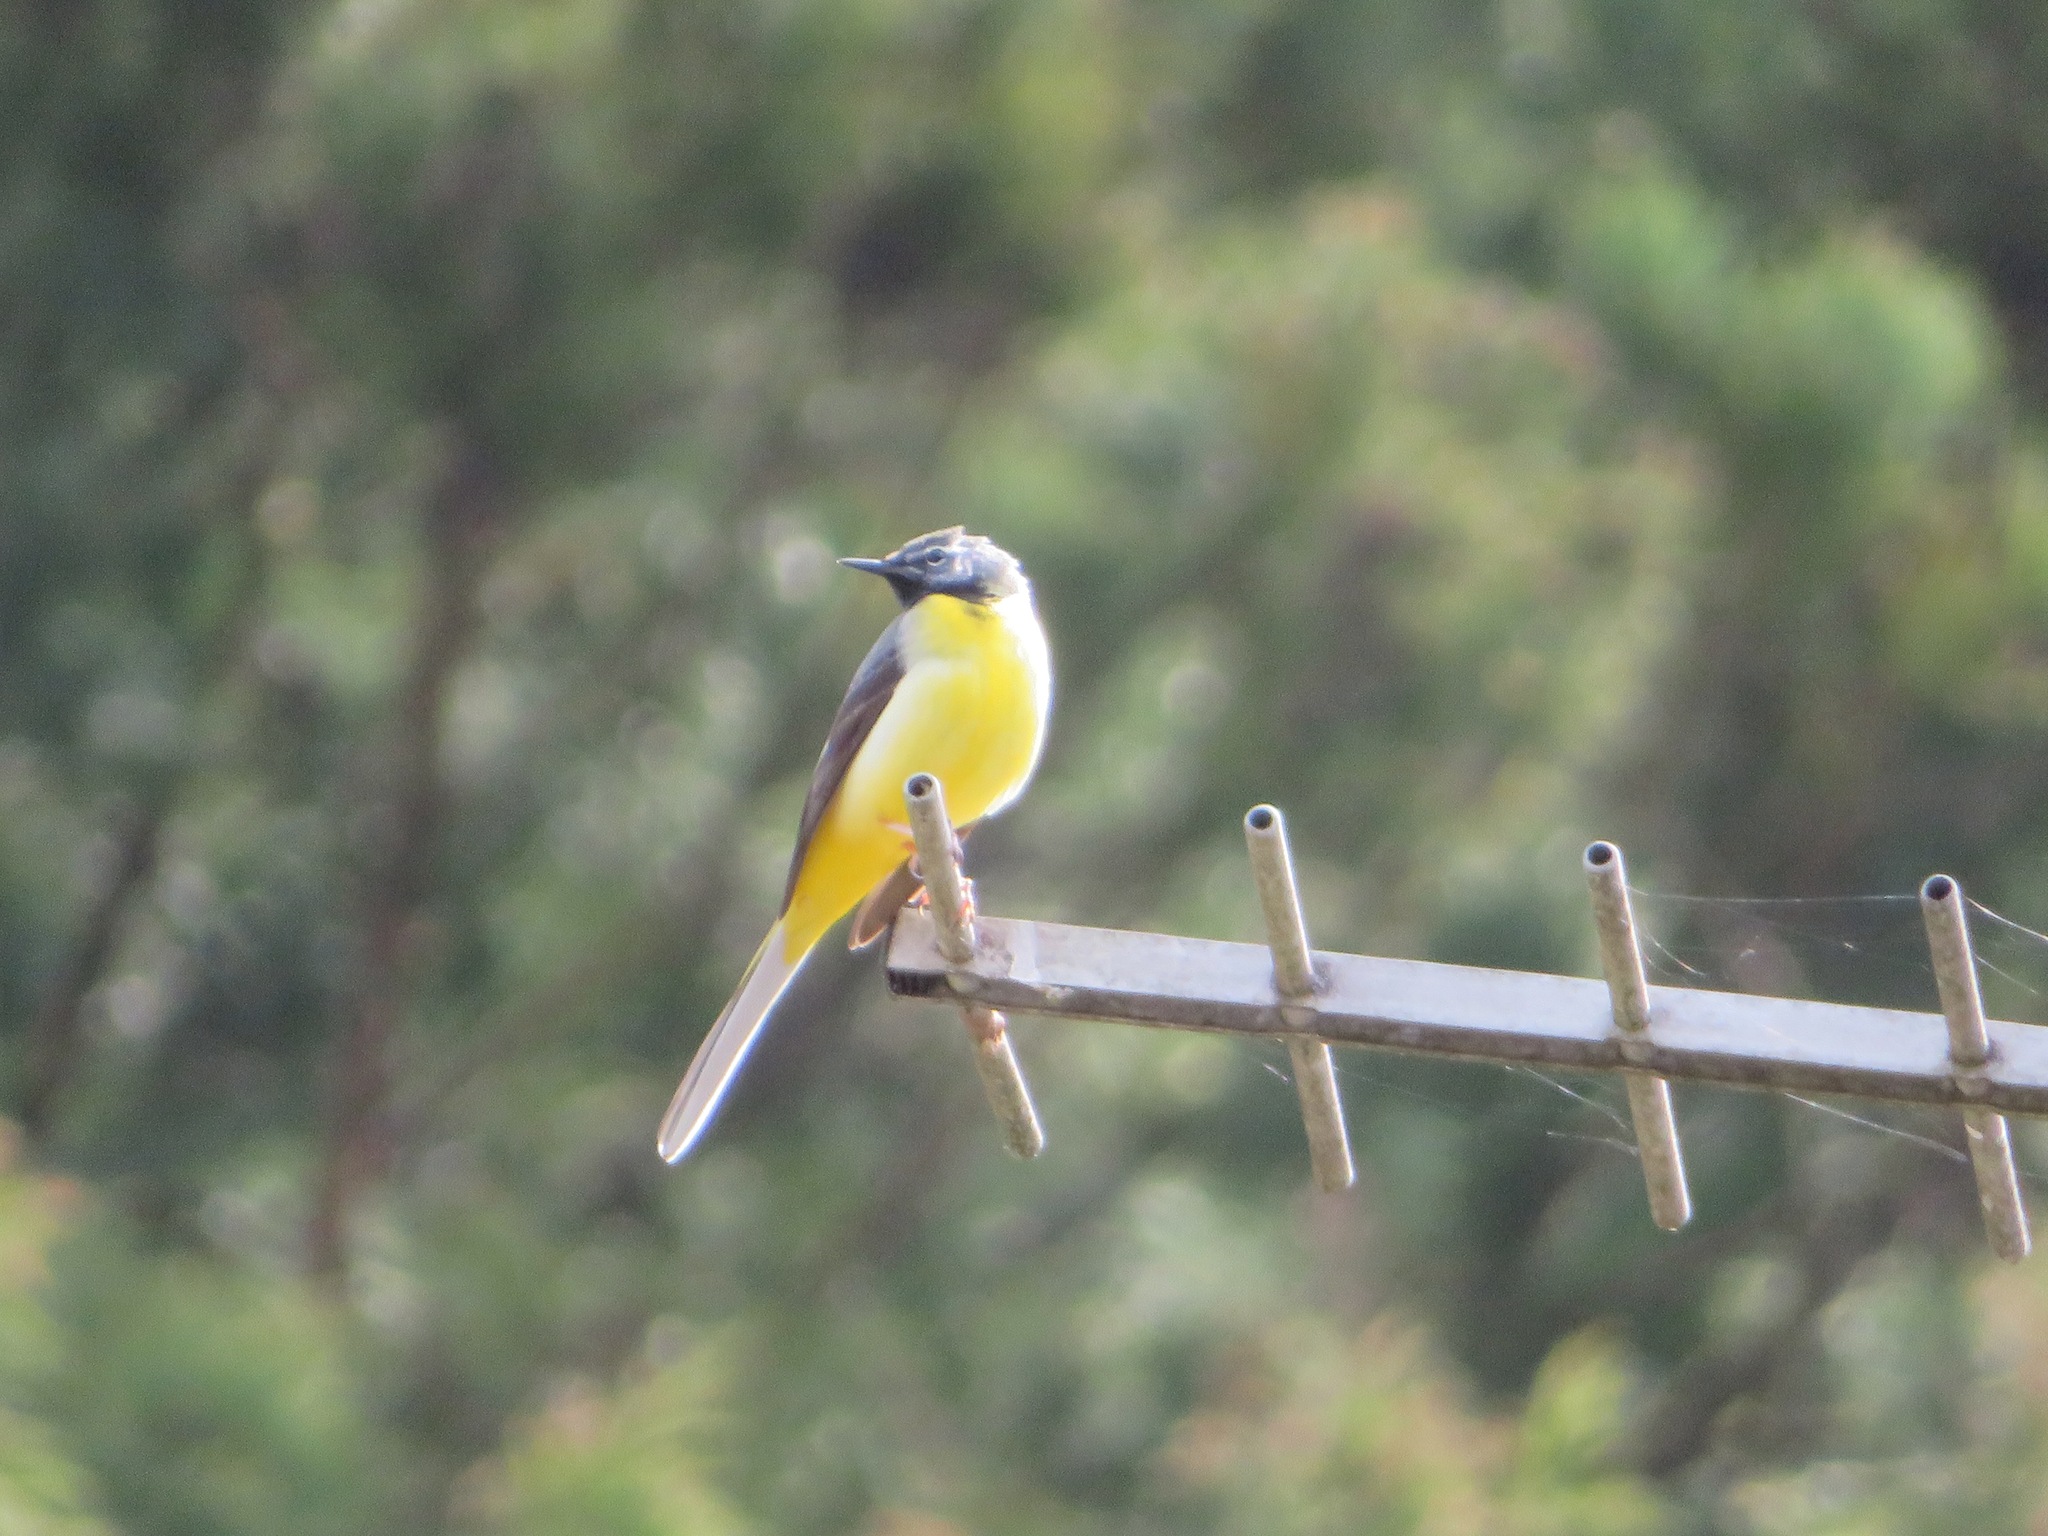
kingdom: Animalia
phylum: Chordata
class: Aves
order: Passeriformes
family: Motacillidae
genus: Motacilla
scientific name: Motacilla cinerea
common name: Grey wagtail
